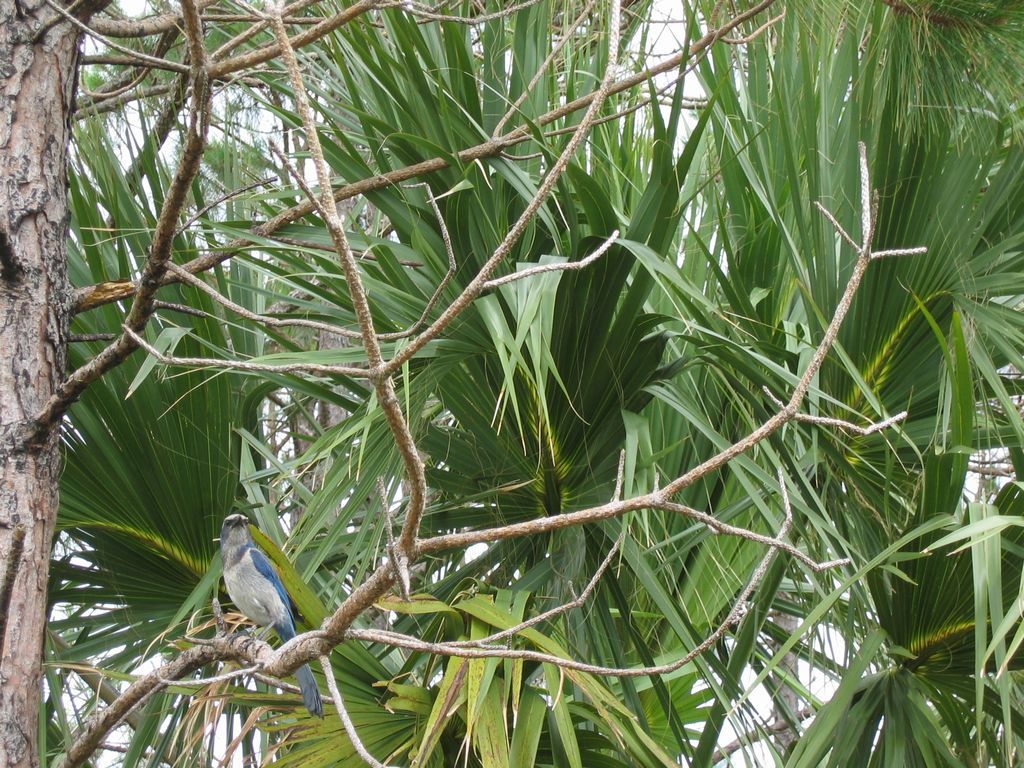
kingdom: Animalia
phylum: Chordata
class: Aves
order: Passeriformes
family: Corvidae
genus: Aphelocoma
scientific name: Aphelocoma coerulescens
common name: Florida scrub jay
